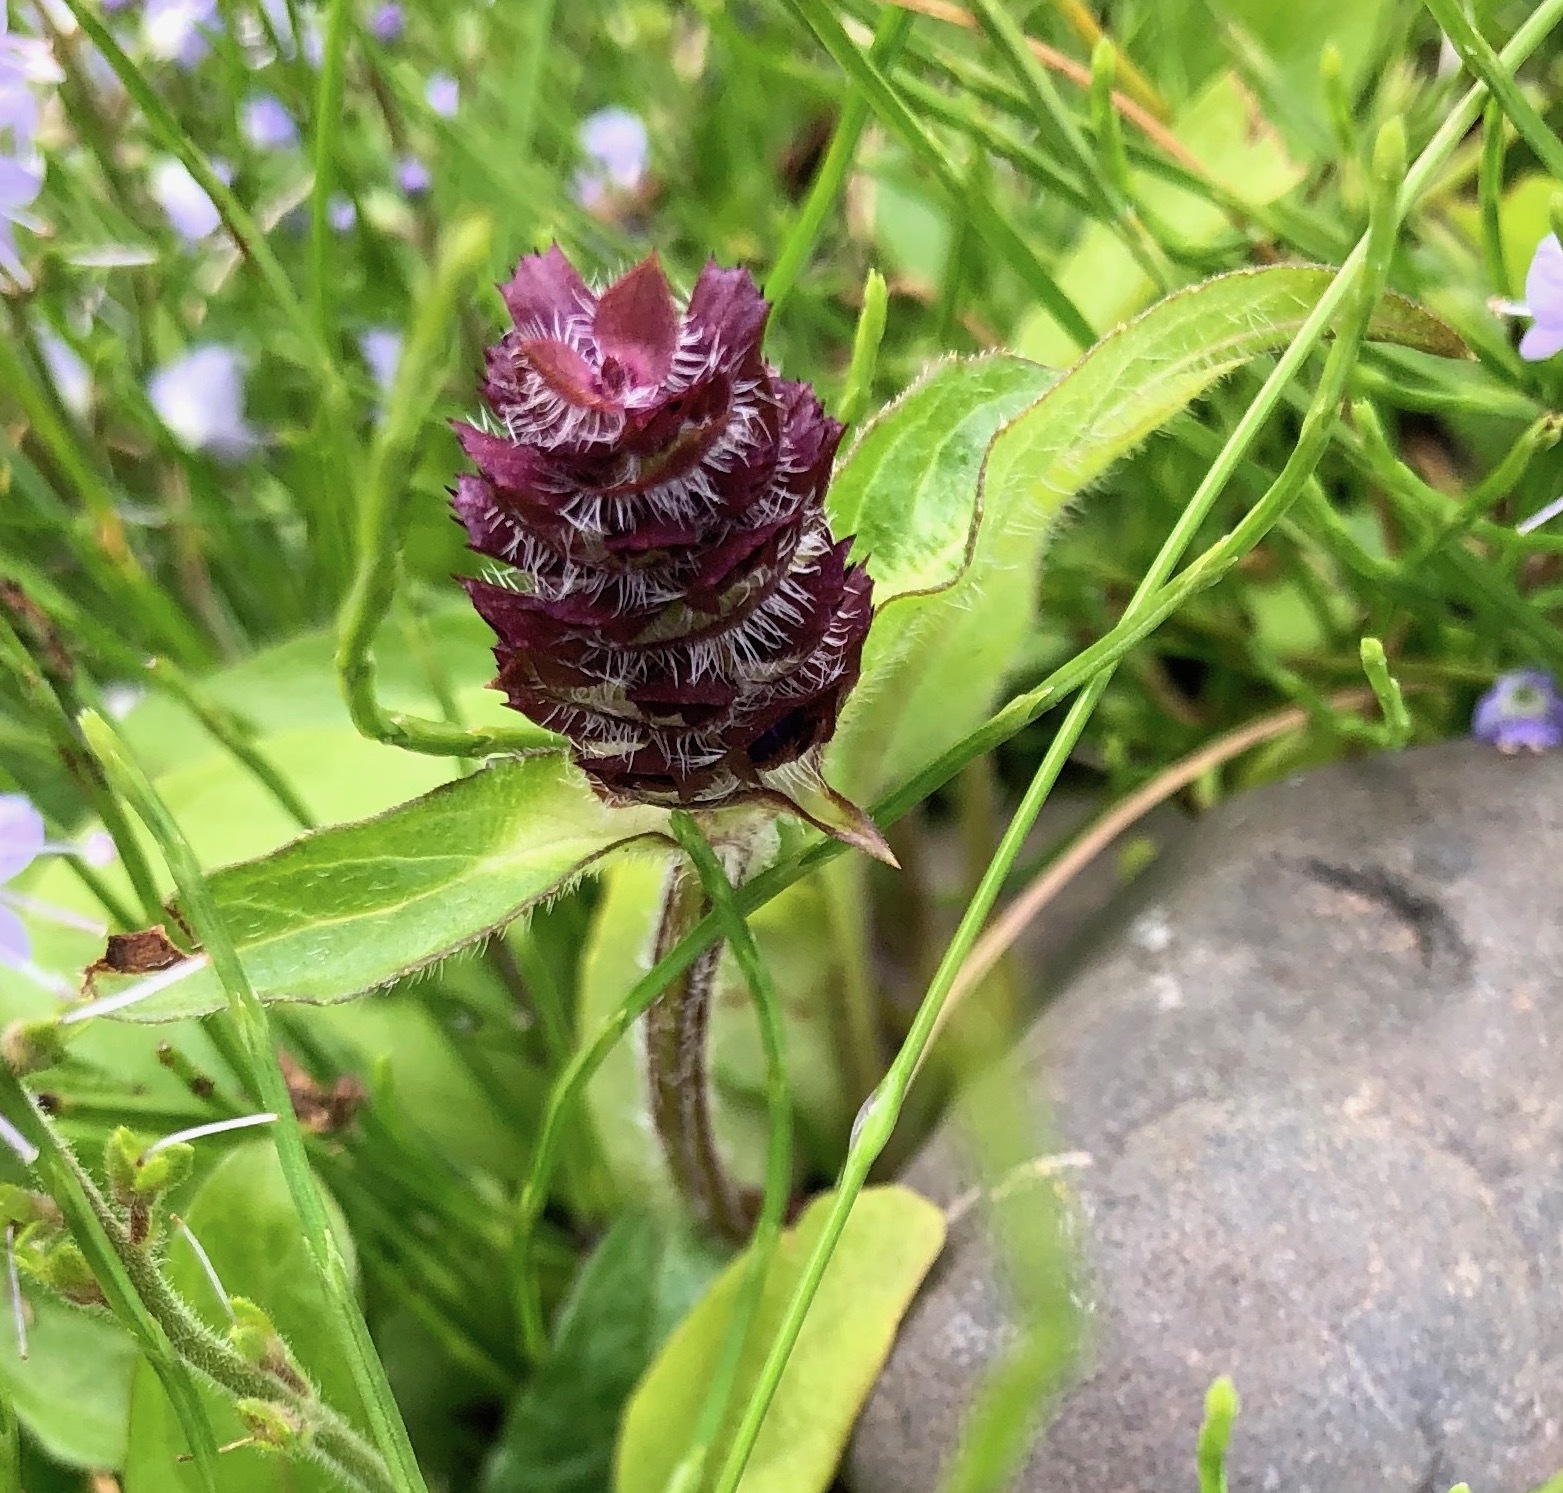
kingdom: Plantae
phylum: Tracheophyta
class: Magnoliopsida
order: Lamiales
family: Lamiaceae
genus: Prunella
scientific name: Prunella vulgaris
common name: Heal-all
